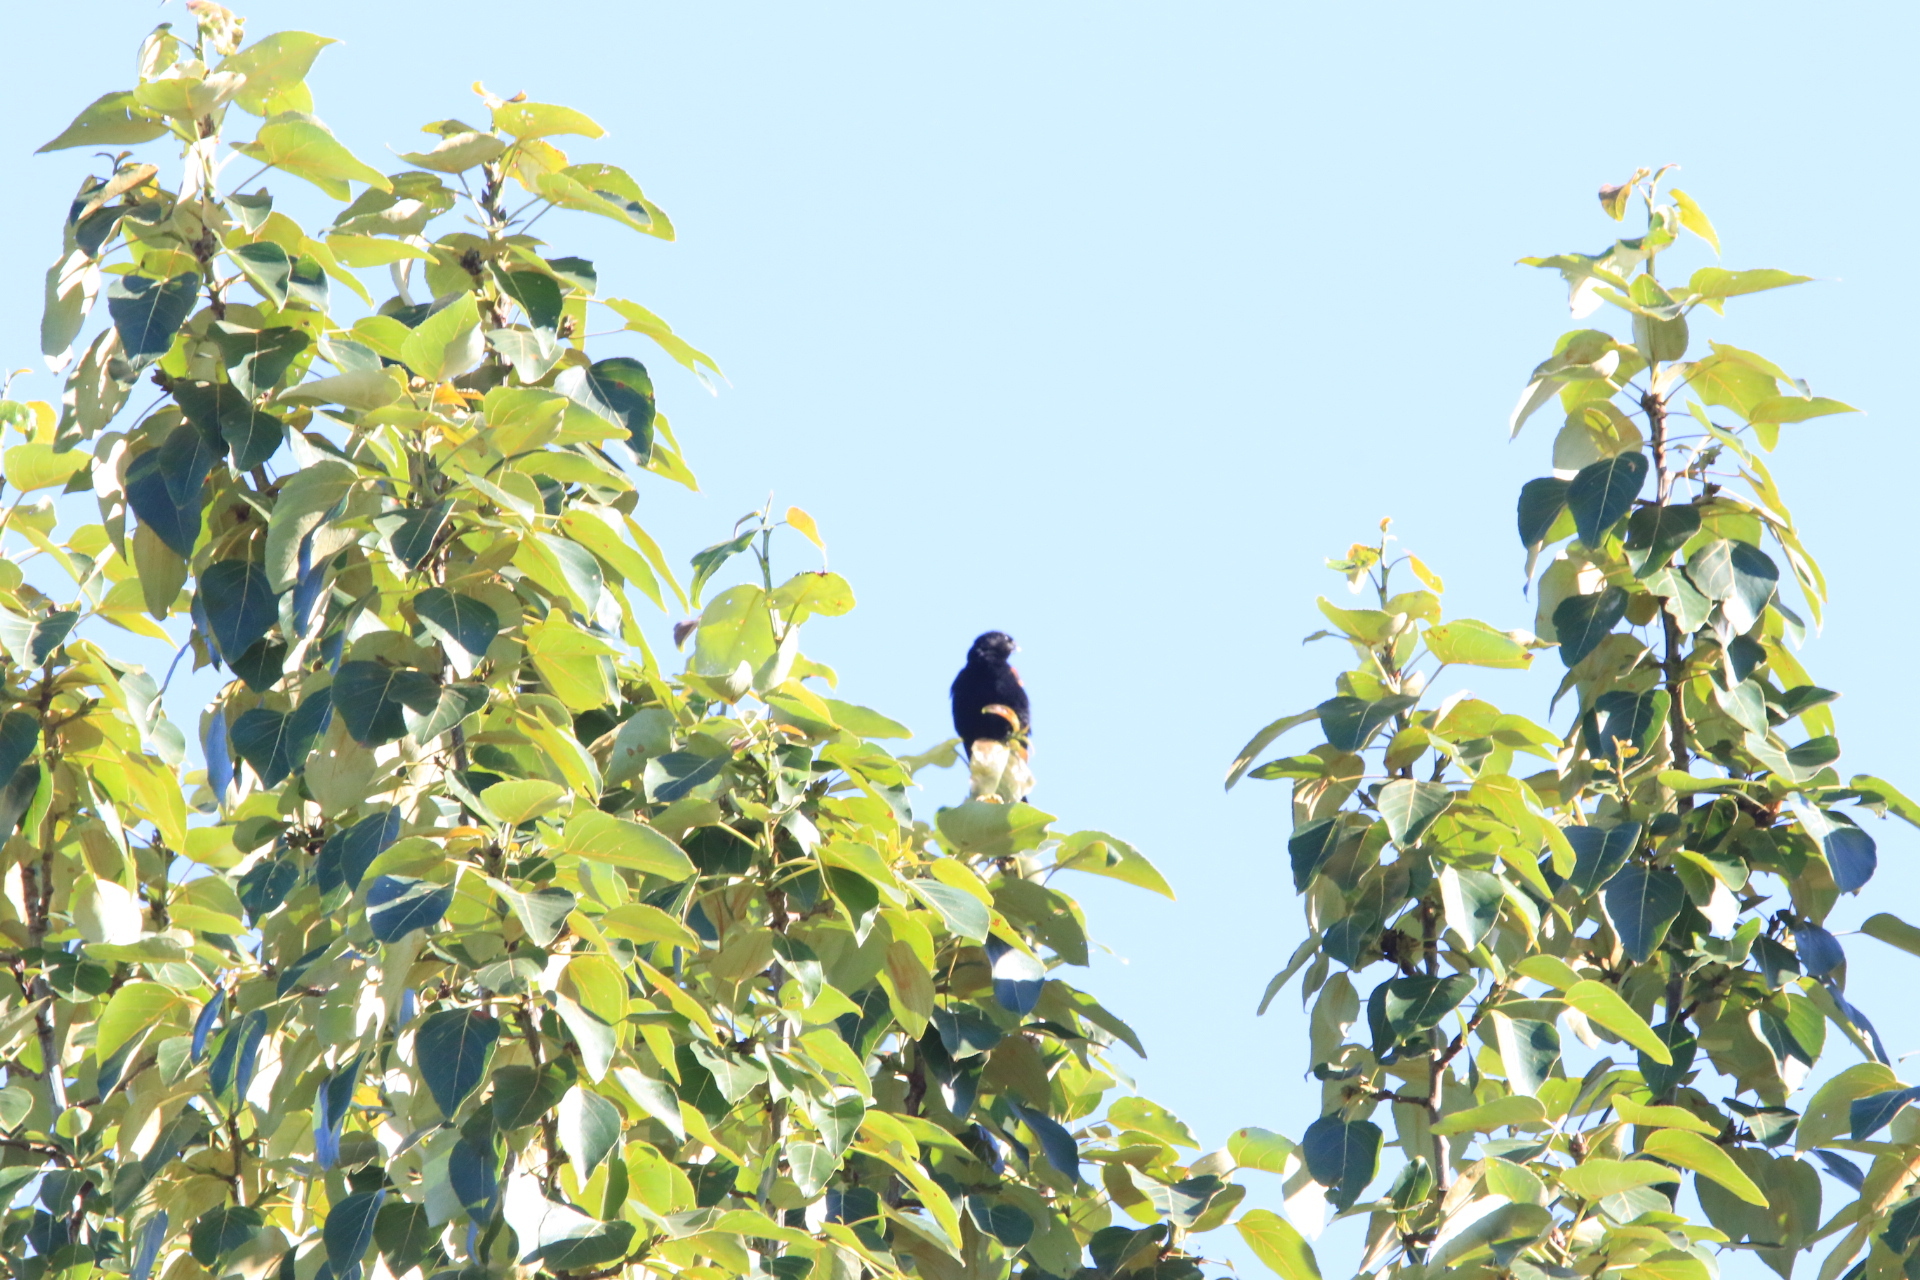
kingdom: Animalia
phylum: Chordata
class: Aves
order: Passeriformes
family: Icteridae
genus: Agelaius
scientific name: Agelaius phoeniceus
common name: Red-winged blackbird
